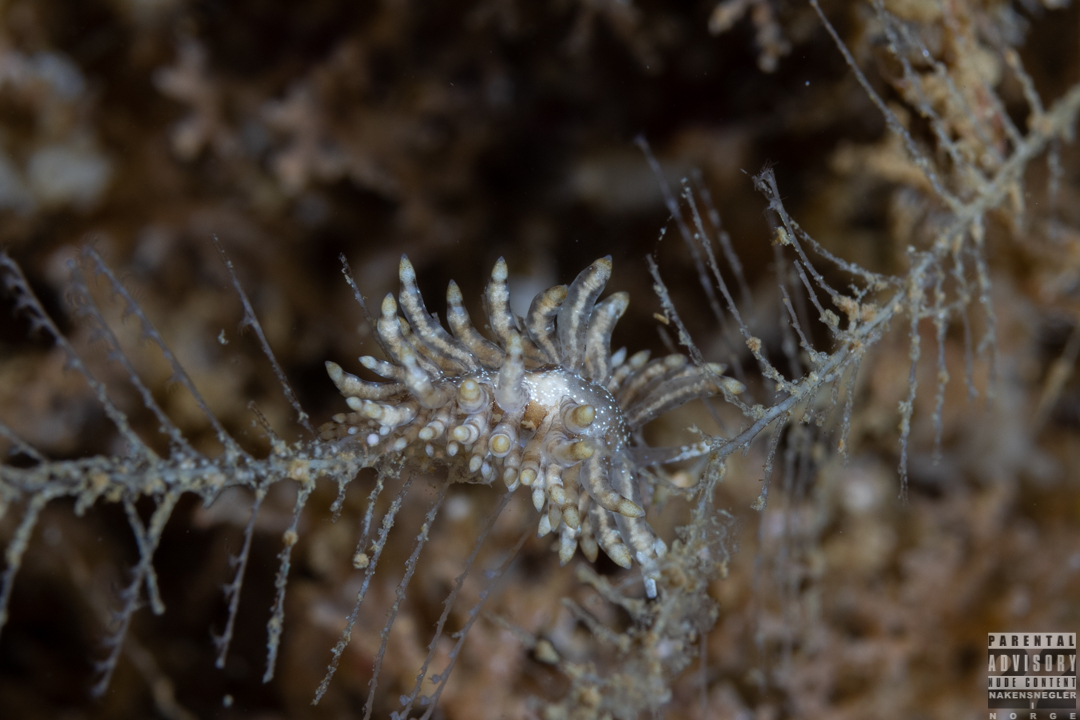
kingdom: Animalia
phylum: Mollusca
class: Gastropoda
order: Nudibranchia
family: Eubranchidae
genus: Eubranchus
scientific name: Eubranchus vittatus
